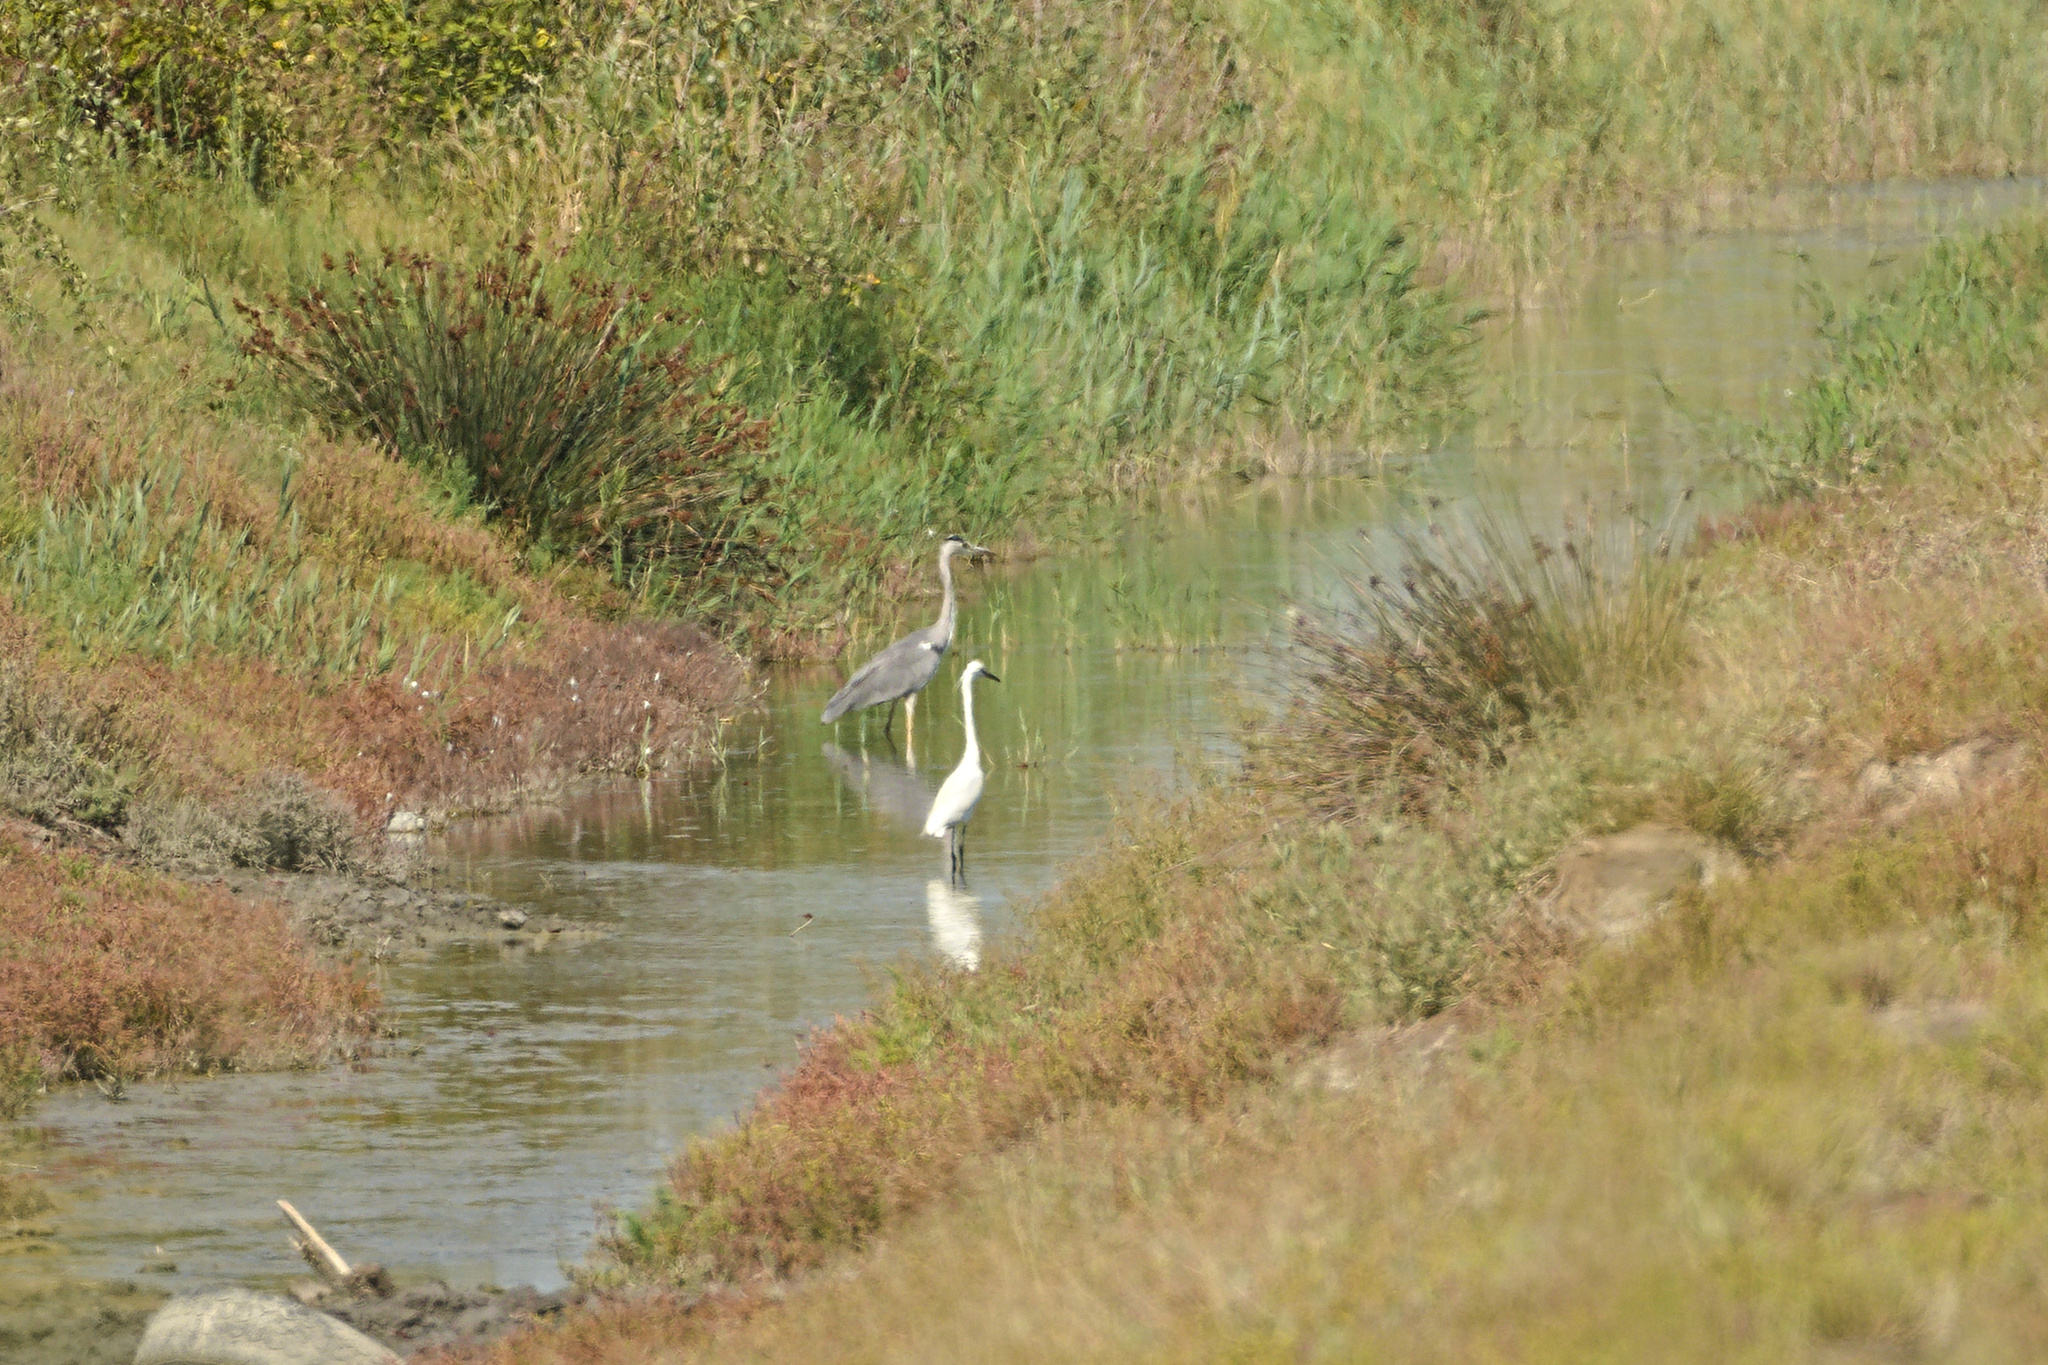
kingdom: Animalia
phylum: Chordata
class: Aves
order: Pelecaniformes
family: Ardeidae
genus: Egretta
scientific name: Egretta garzetta
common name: Little egret
